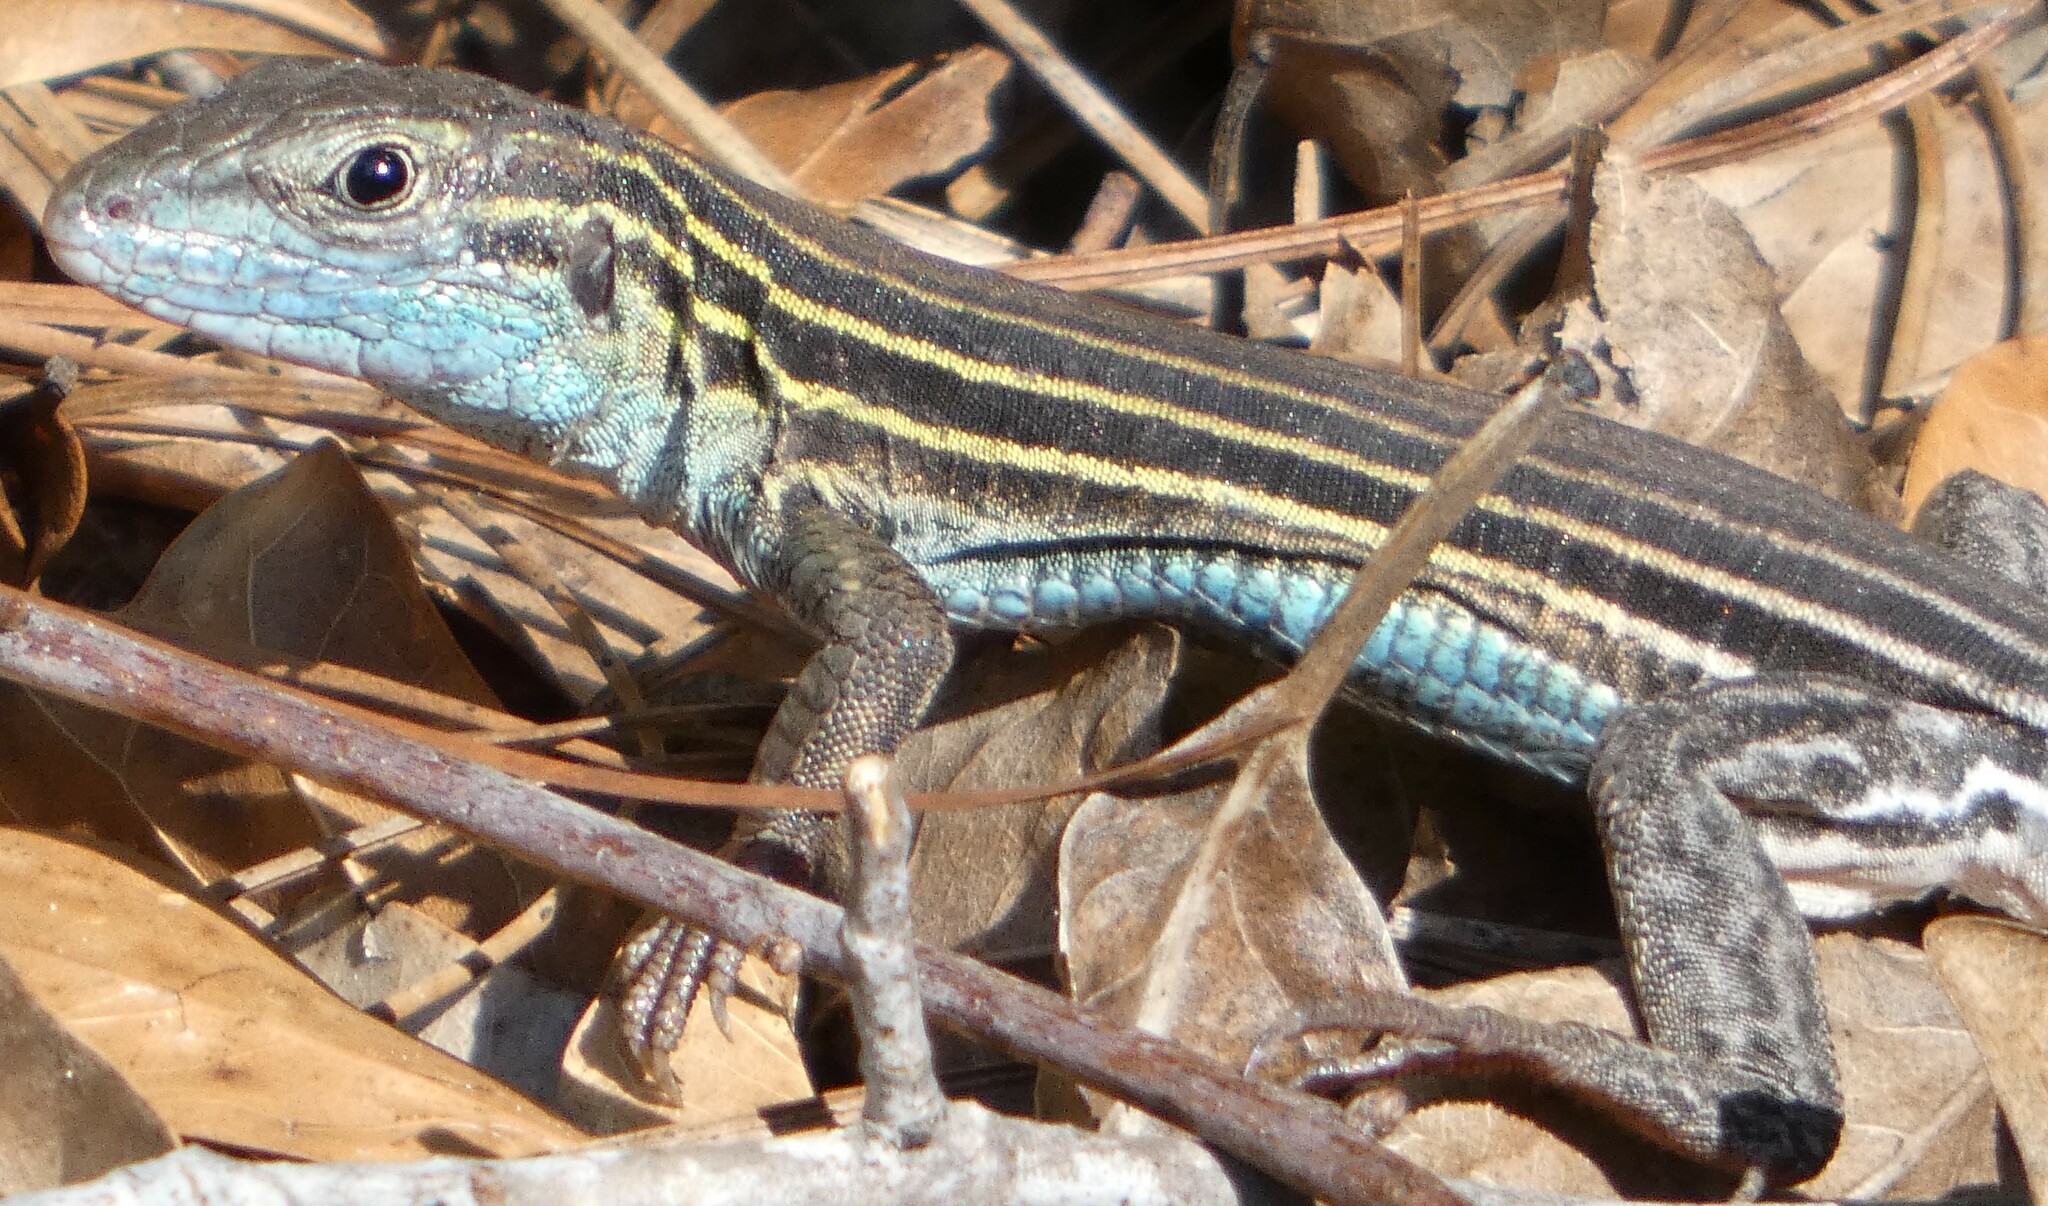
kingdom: Animalia
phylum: Chordata
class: Squamata
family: Teiidae
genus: Aspidoscelis
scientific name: Aspidoscelis sexlineatus
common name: Six-lined racerunner
